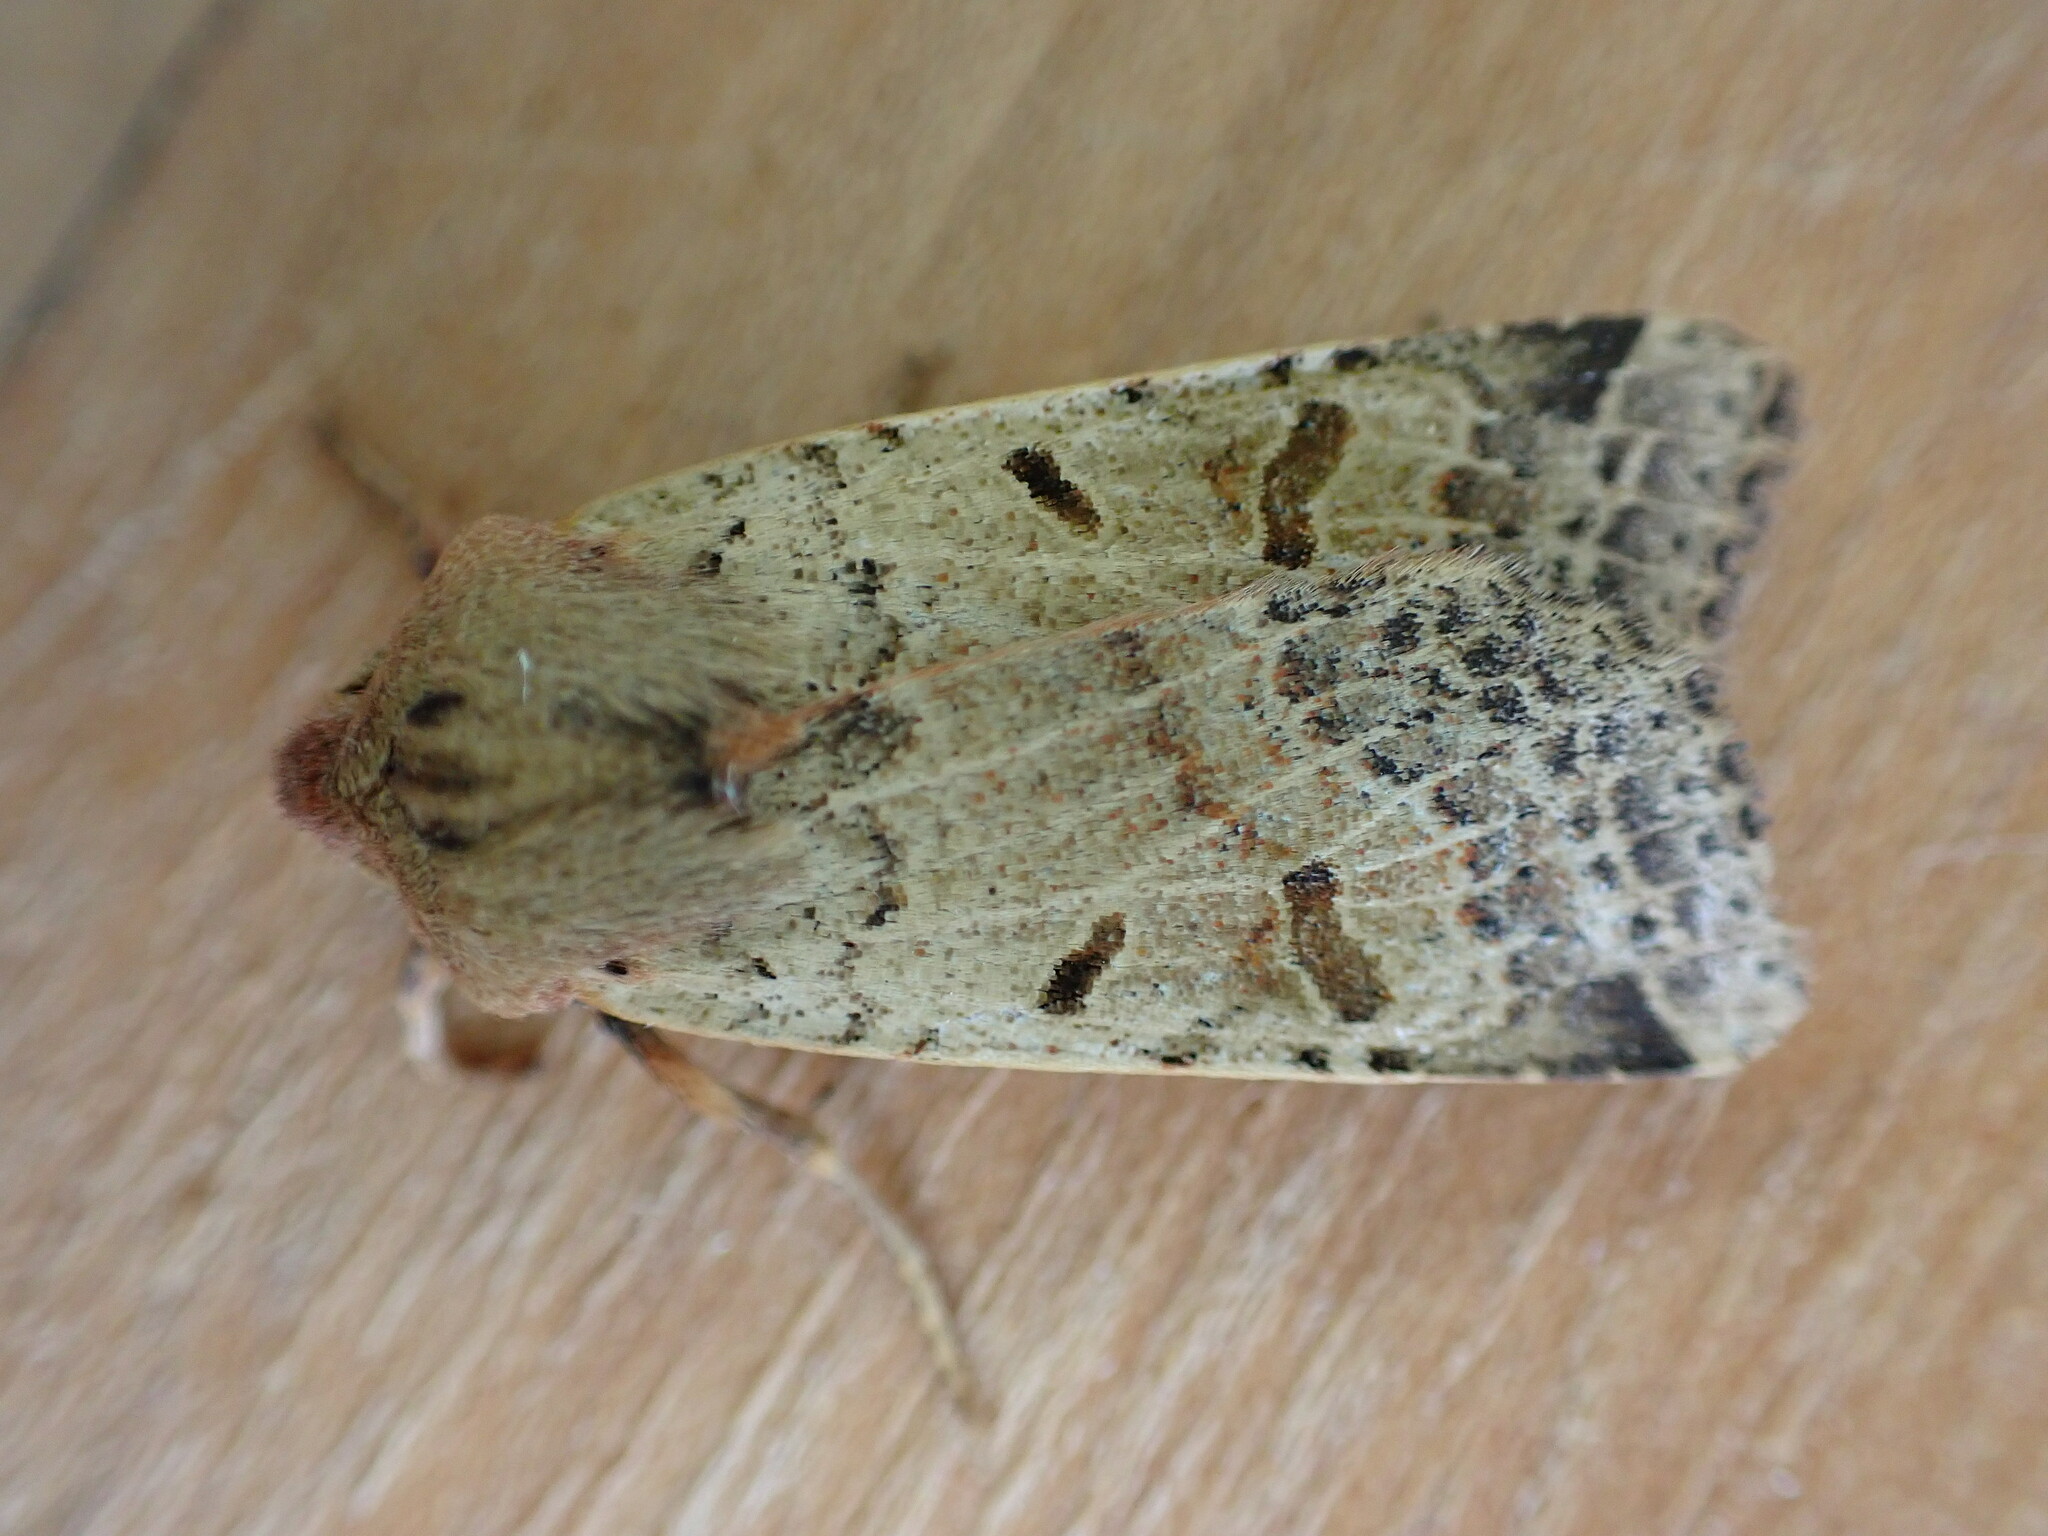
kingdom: Animalia
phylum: Arthropoda
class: Insecta
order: Lepidoptera
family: Noctuidae
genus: Agrochola
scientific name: Agrochola lychnidis
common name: Beaded chestnut
